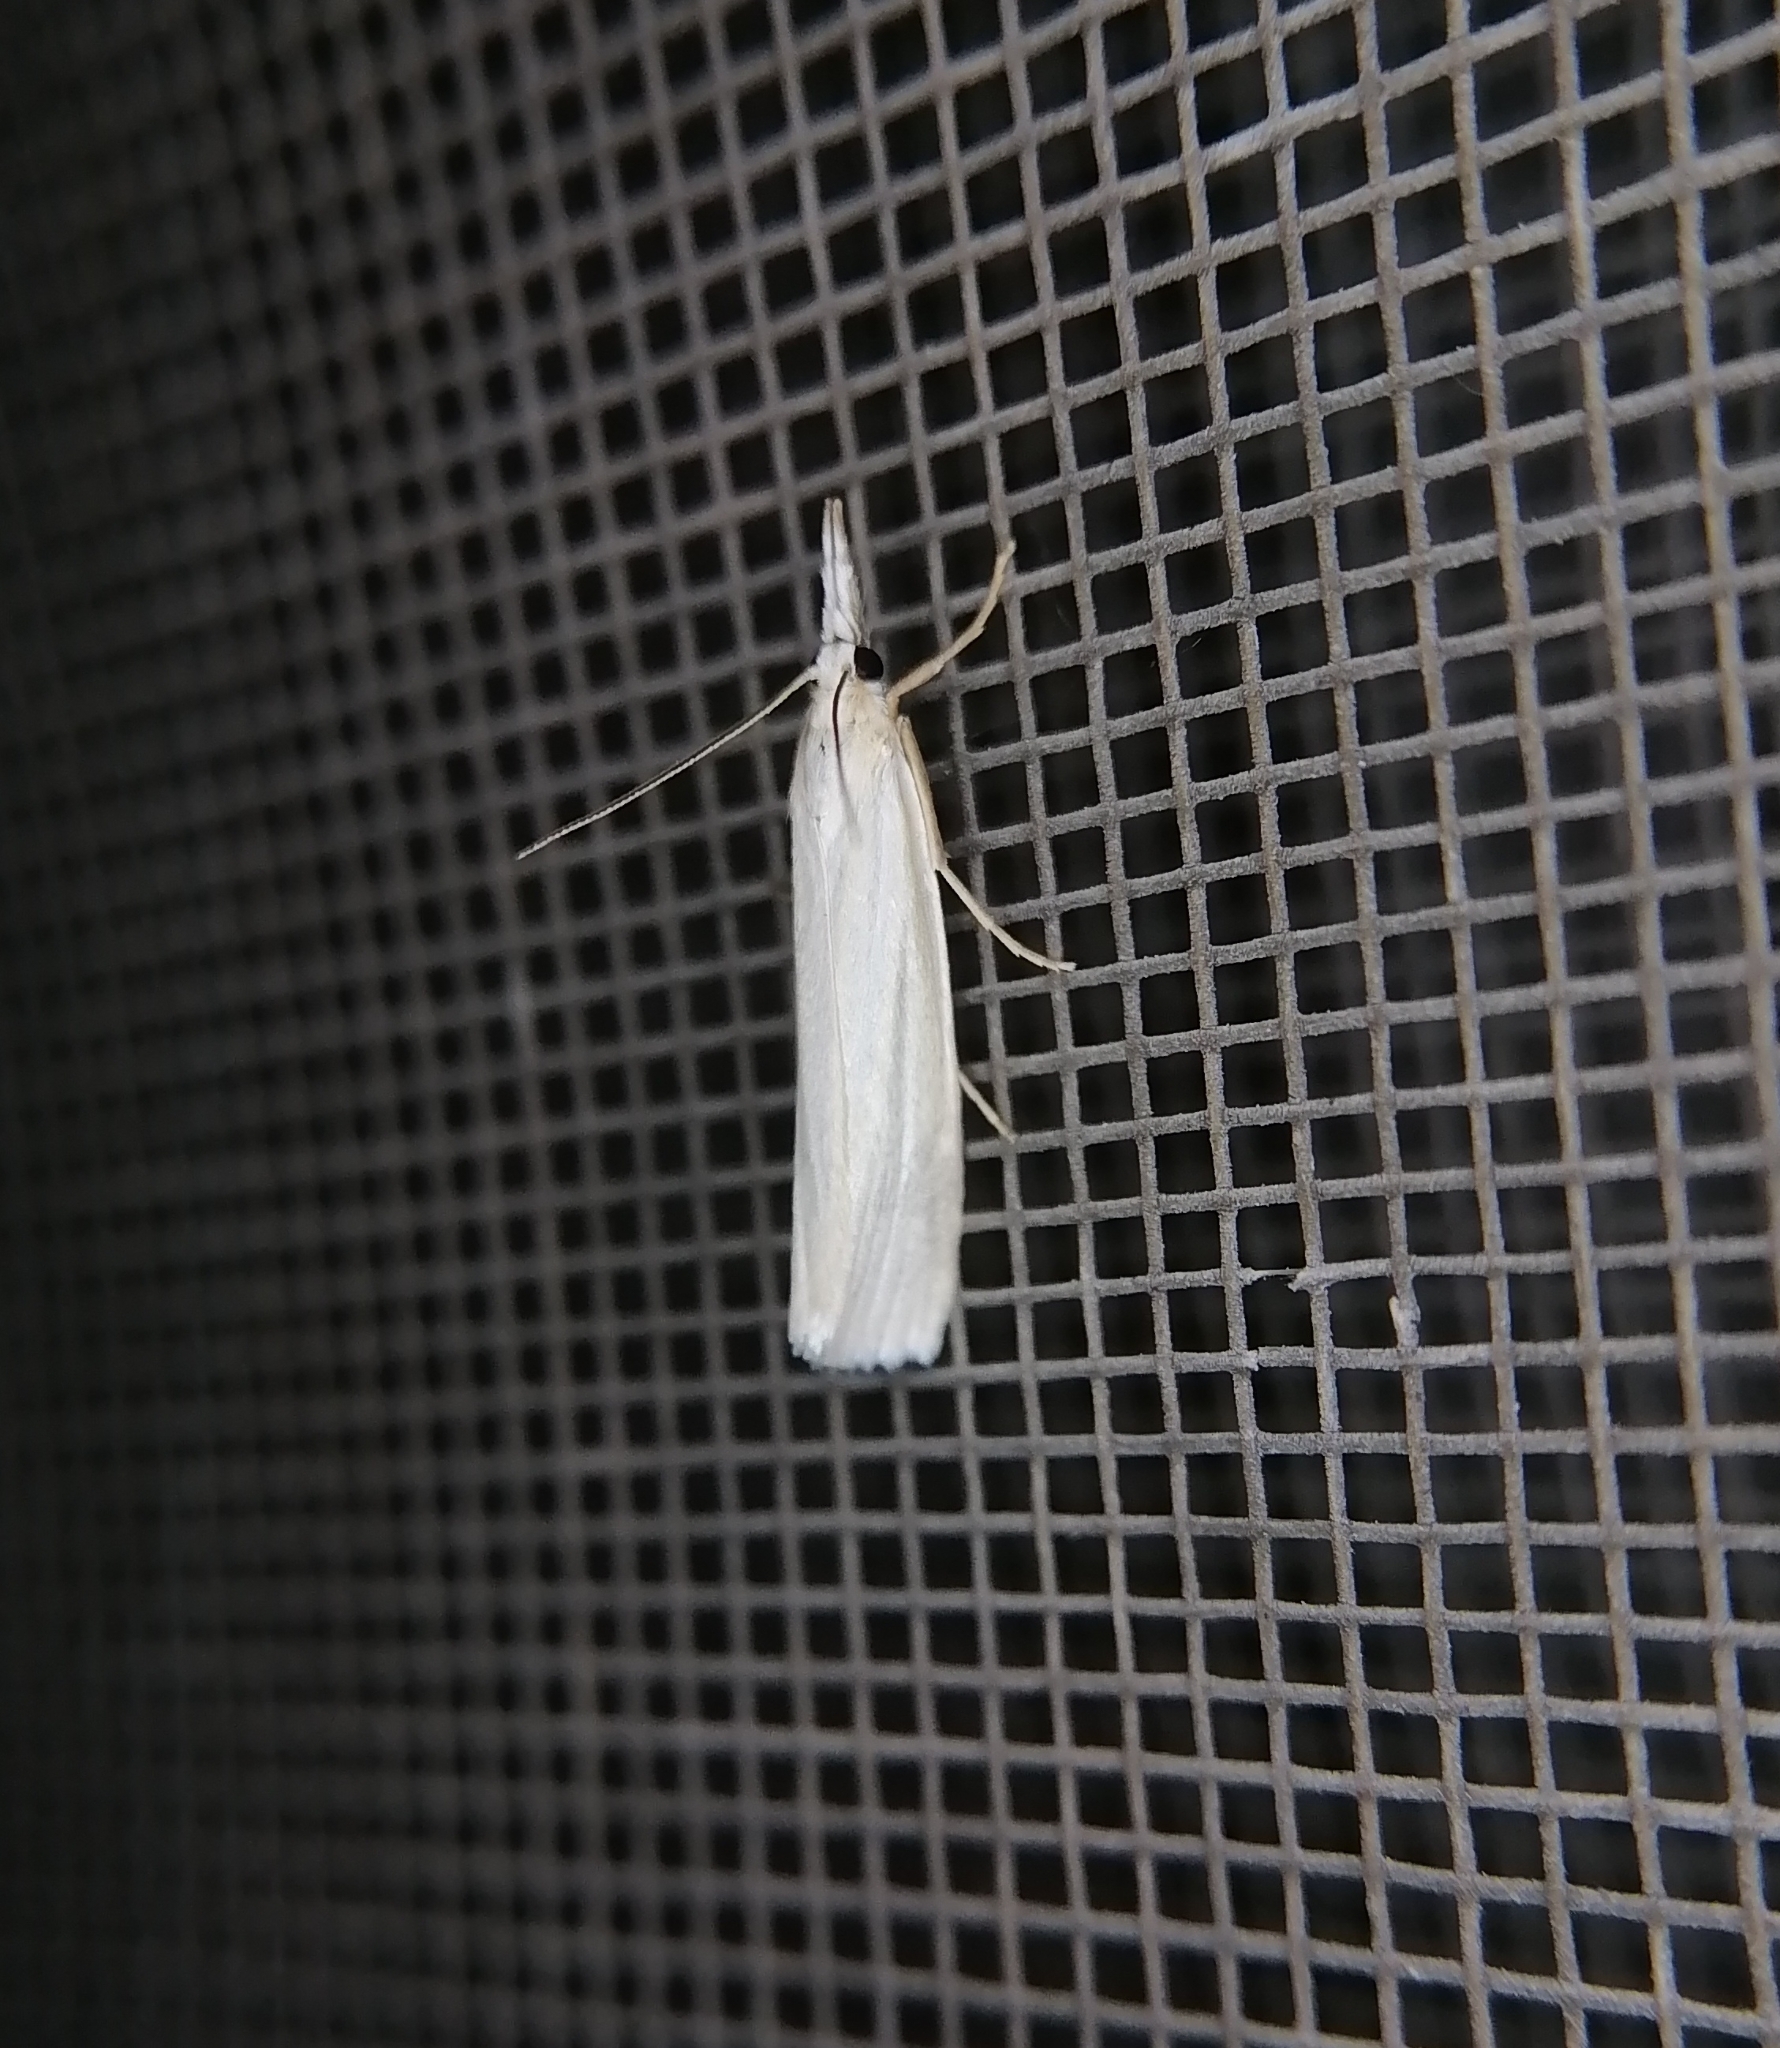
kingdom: Animalia
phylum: Arthropoda
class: Insecta
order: Lepidoptera
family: Crambidae
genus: Crambus
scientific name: Crambus perlellus
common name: Yellow satin veneer
